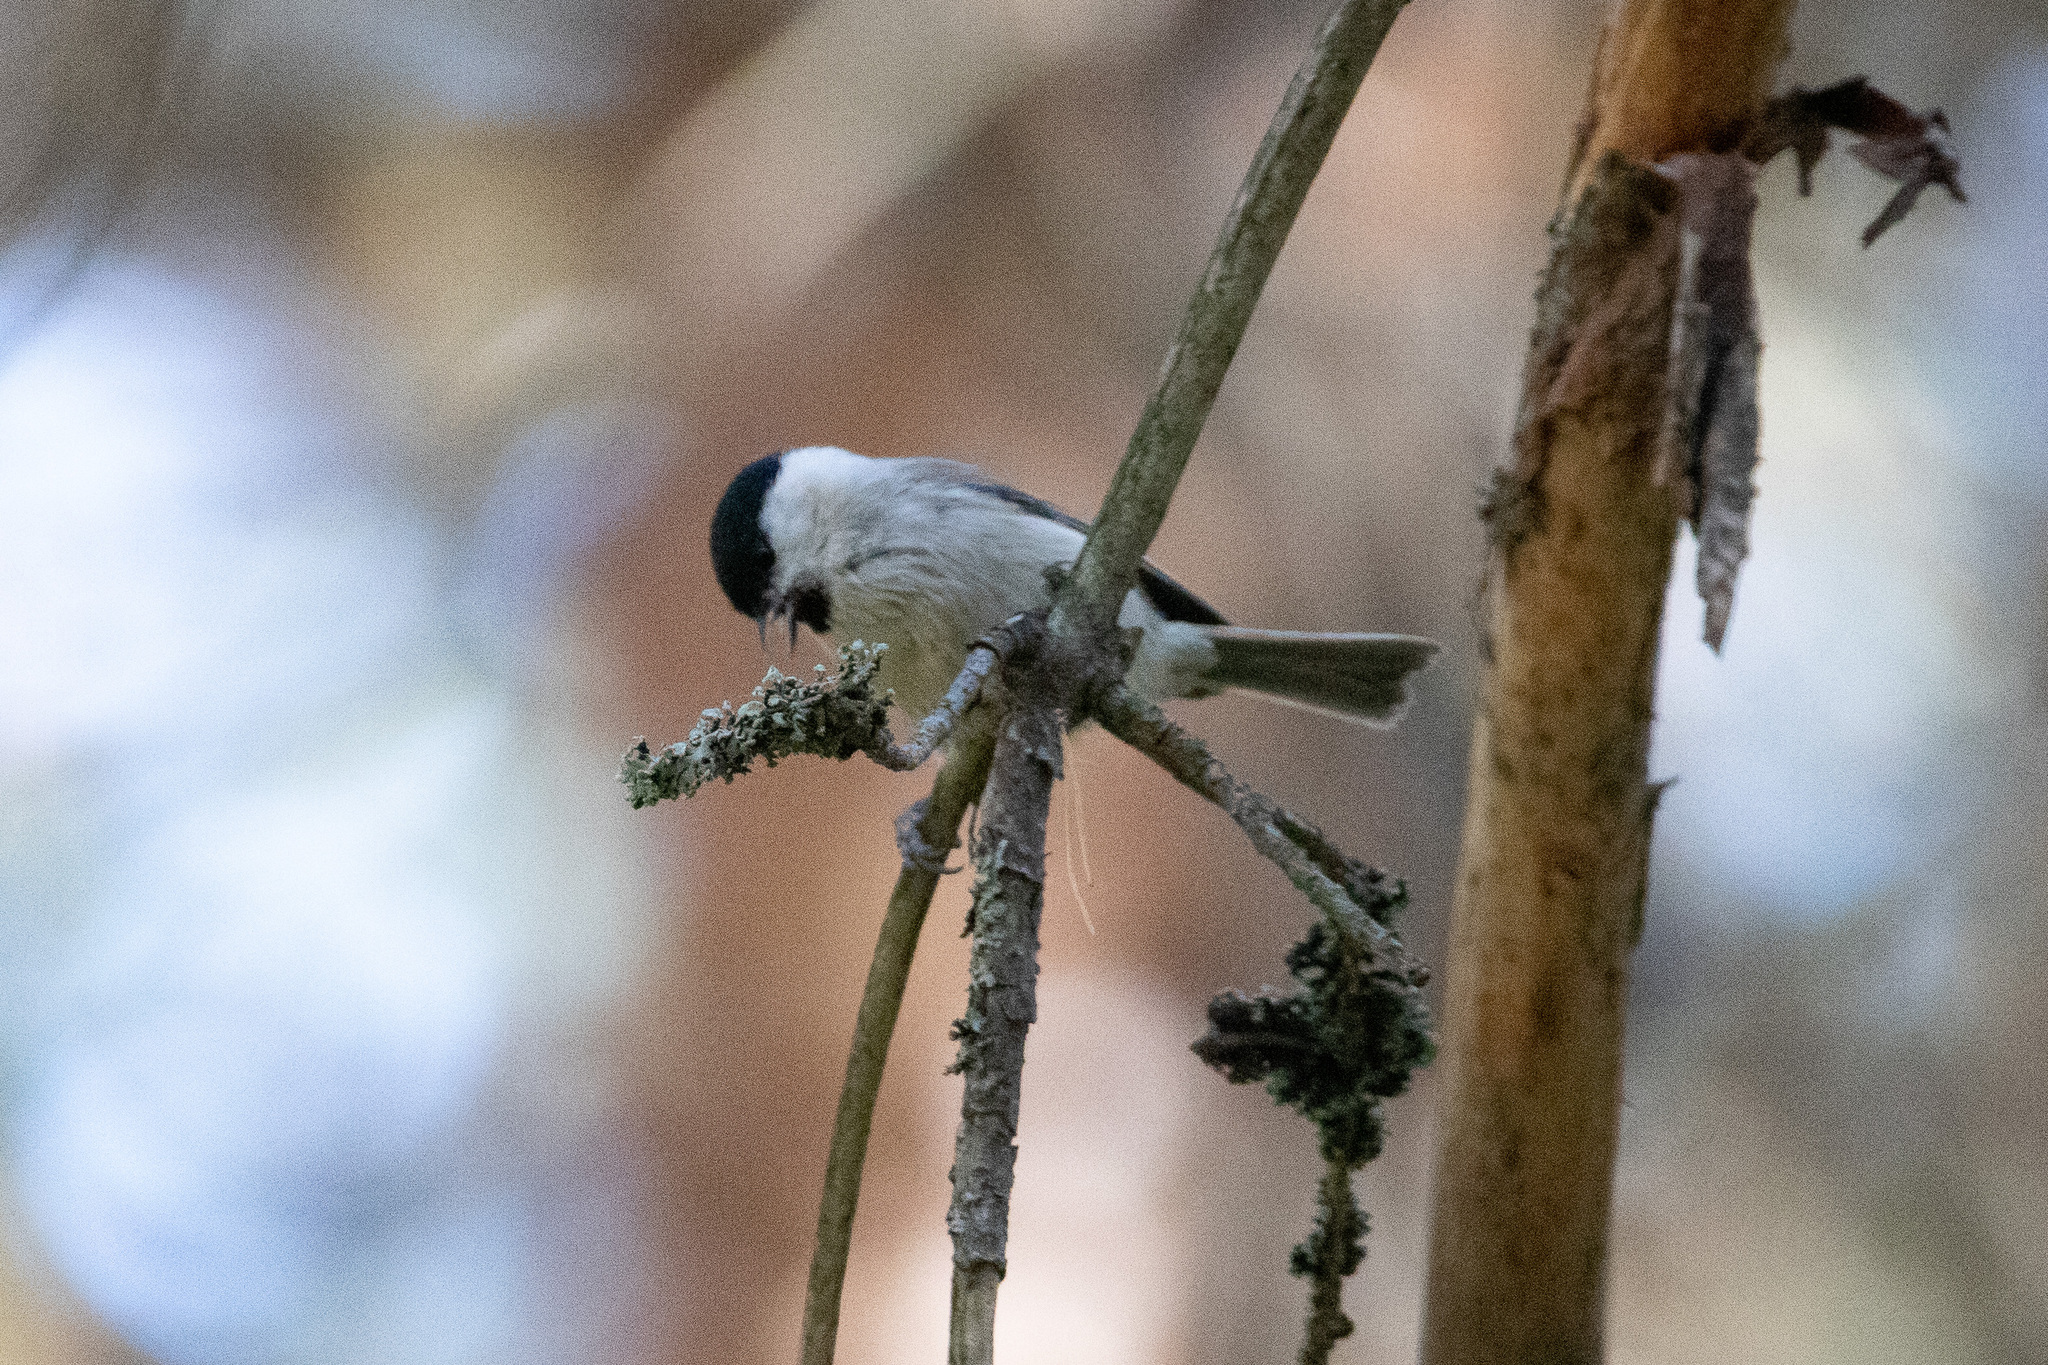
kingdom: Animalia
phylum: Chordata
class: Aves
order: Passeriformes
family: Paridae
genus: Poecile
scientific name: Poecile montanus
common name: Willow tit
